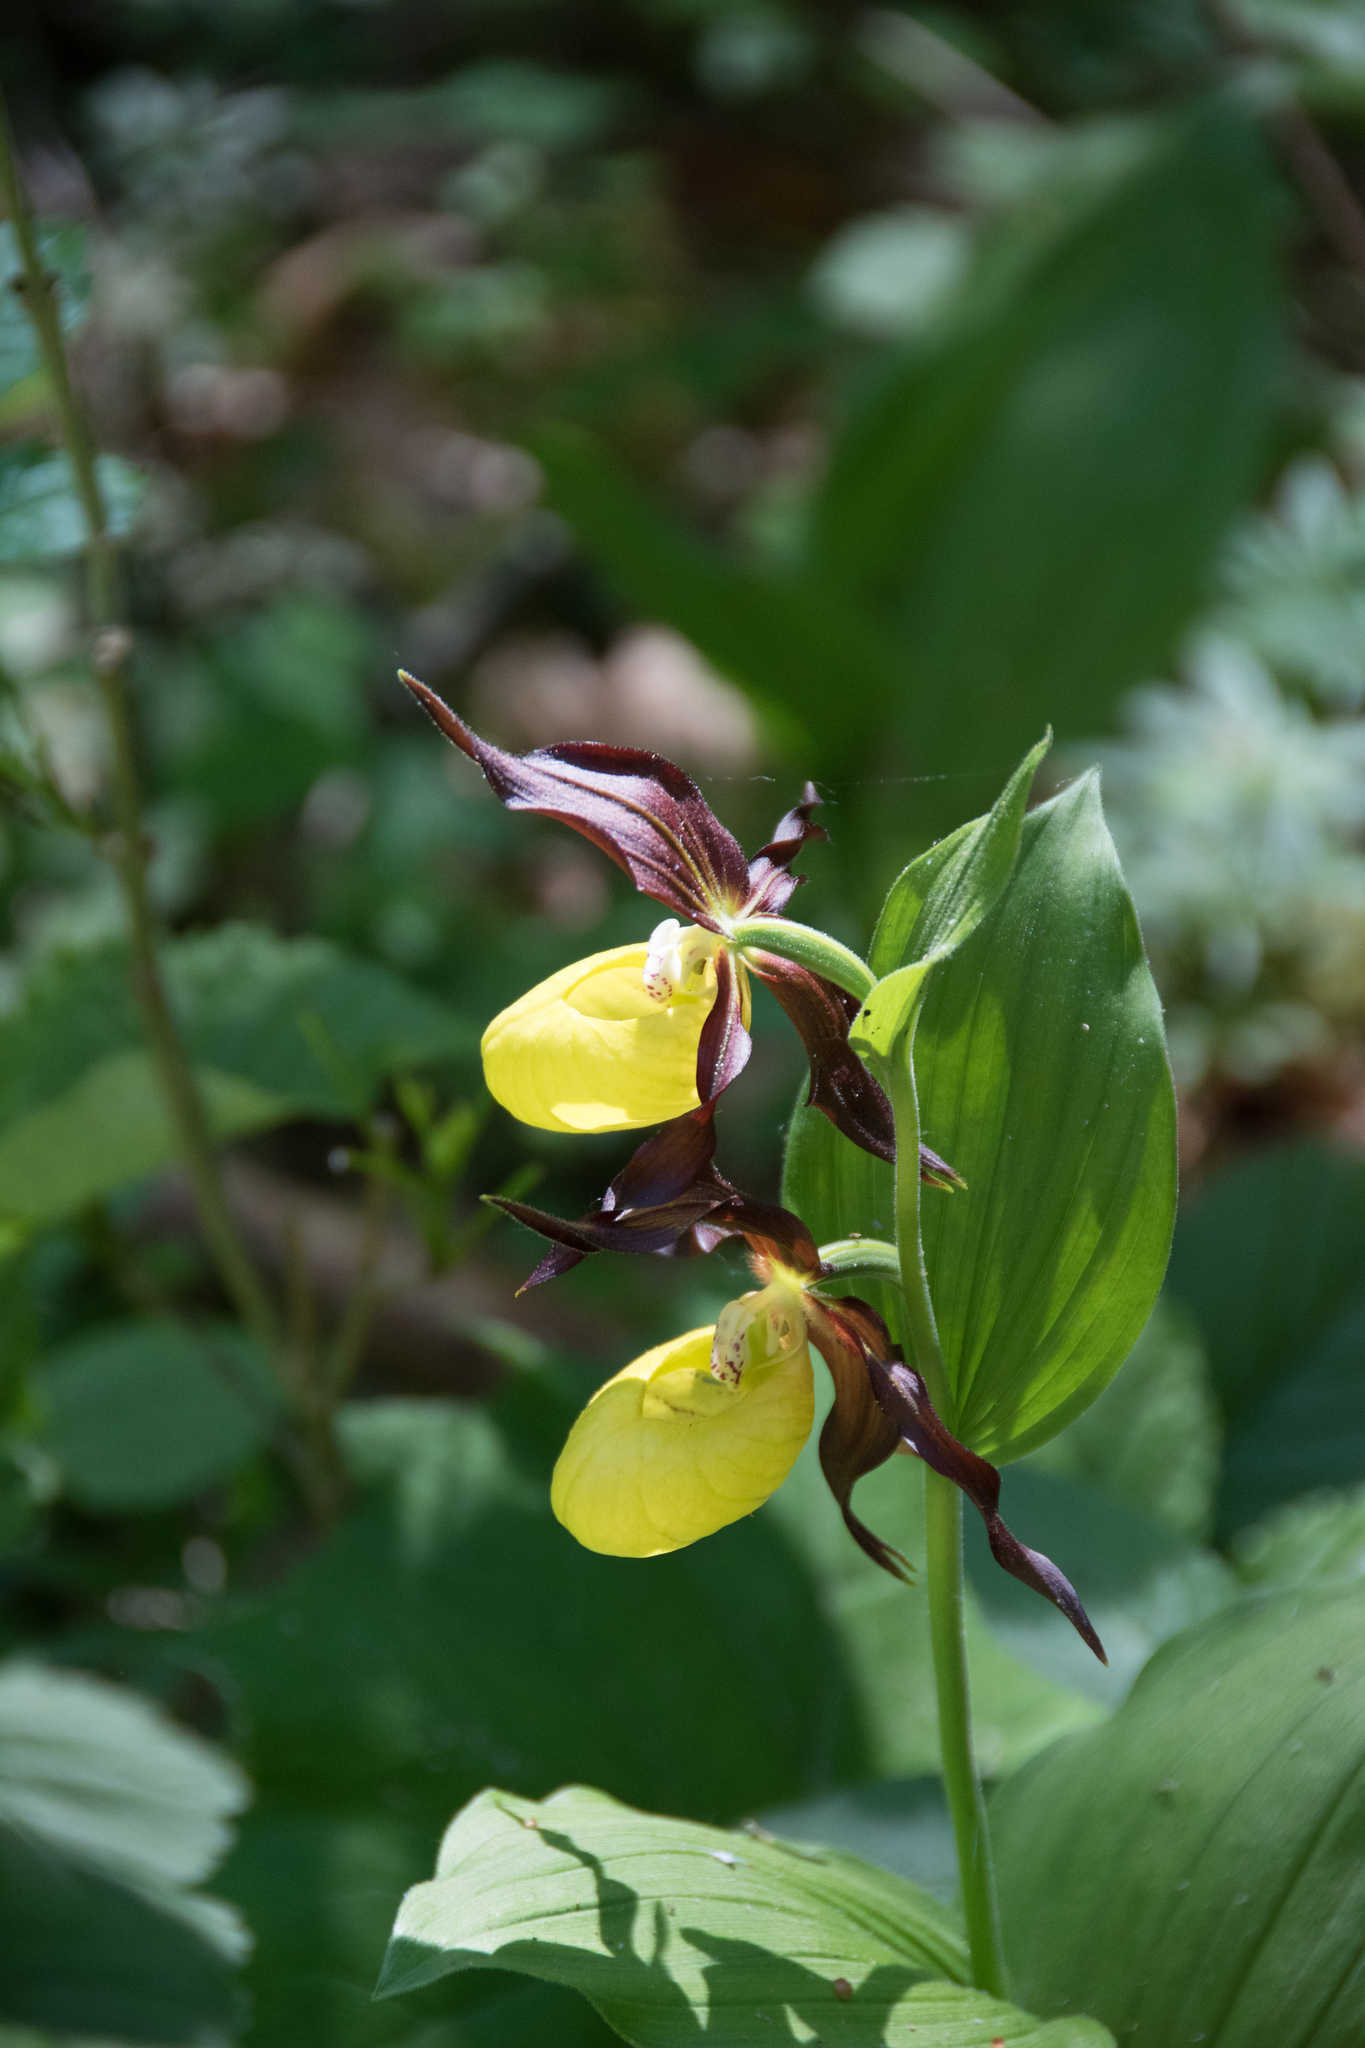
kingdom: Plantae
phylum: Tracheophyta
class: Liliopsida
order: Asparagales
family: Orchidaceae
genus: Cypripedium
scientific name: Cypripedium calceolus
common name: Lady's-slipper
